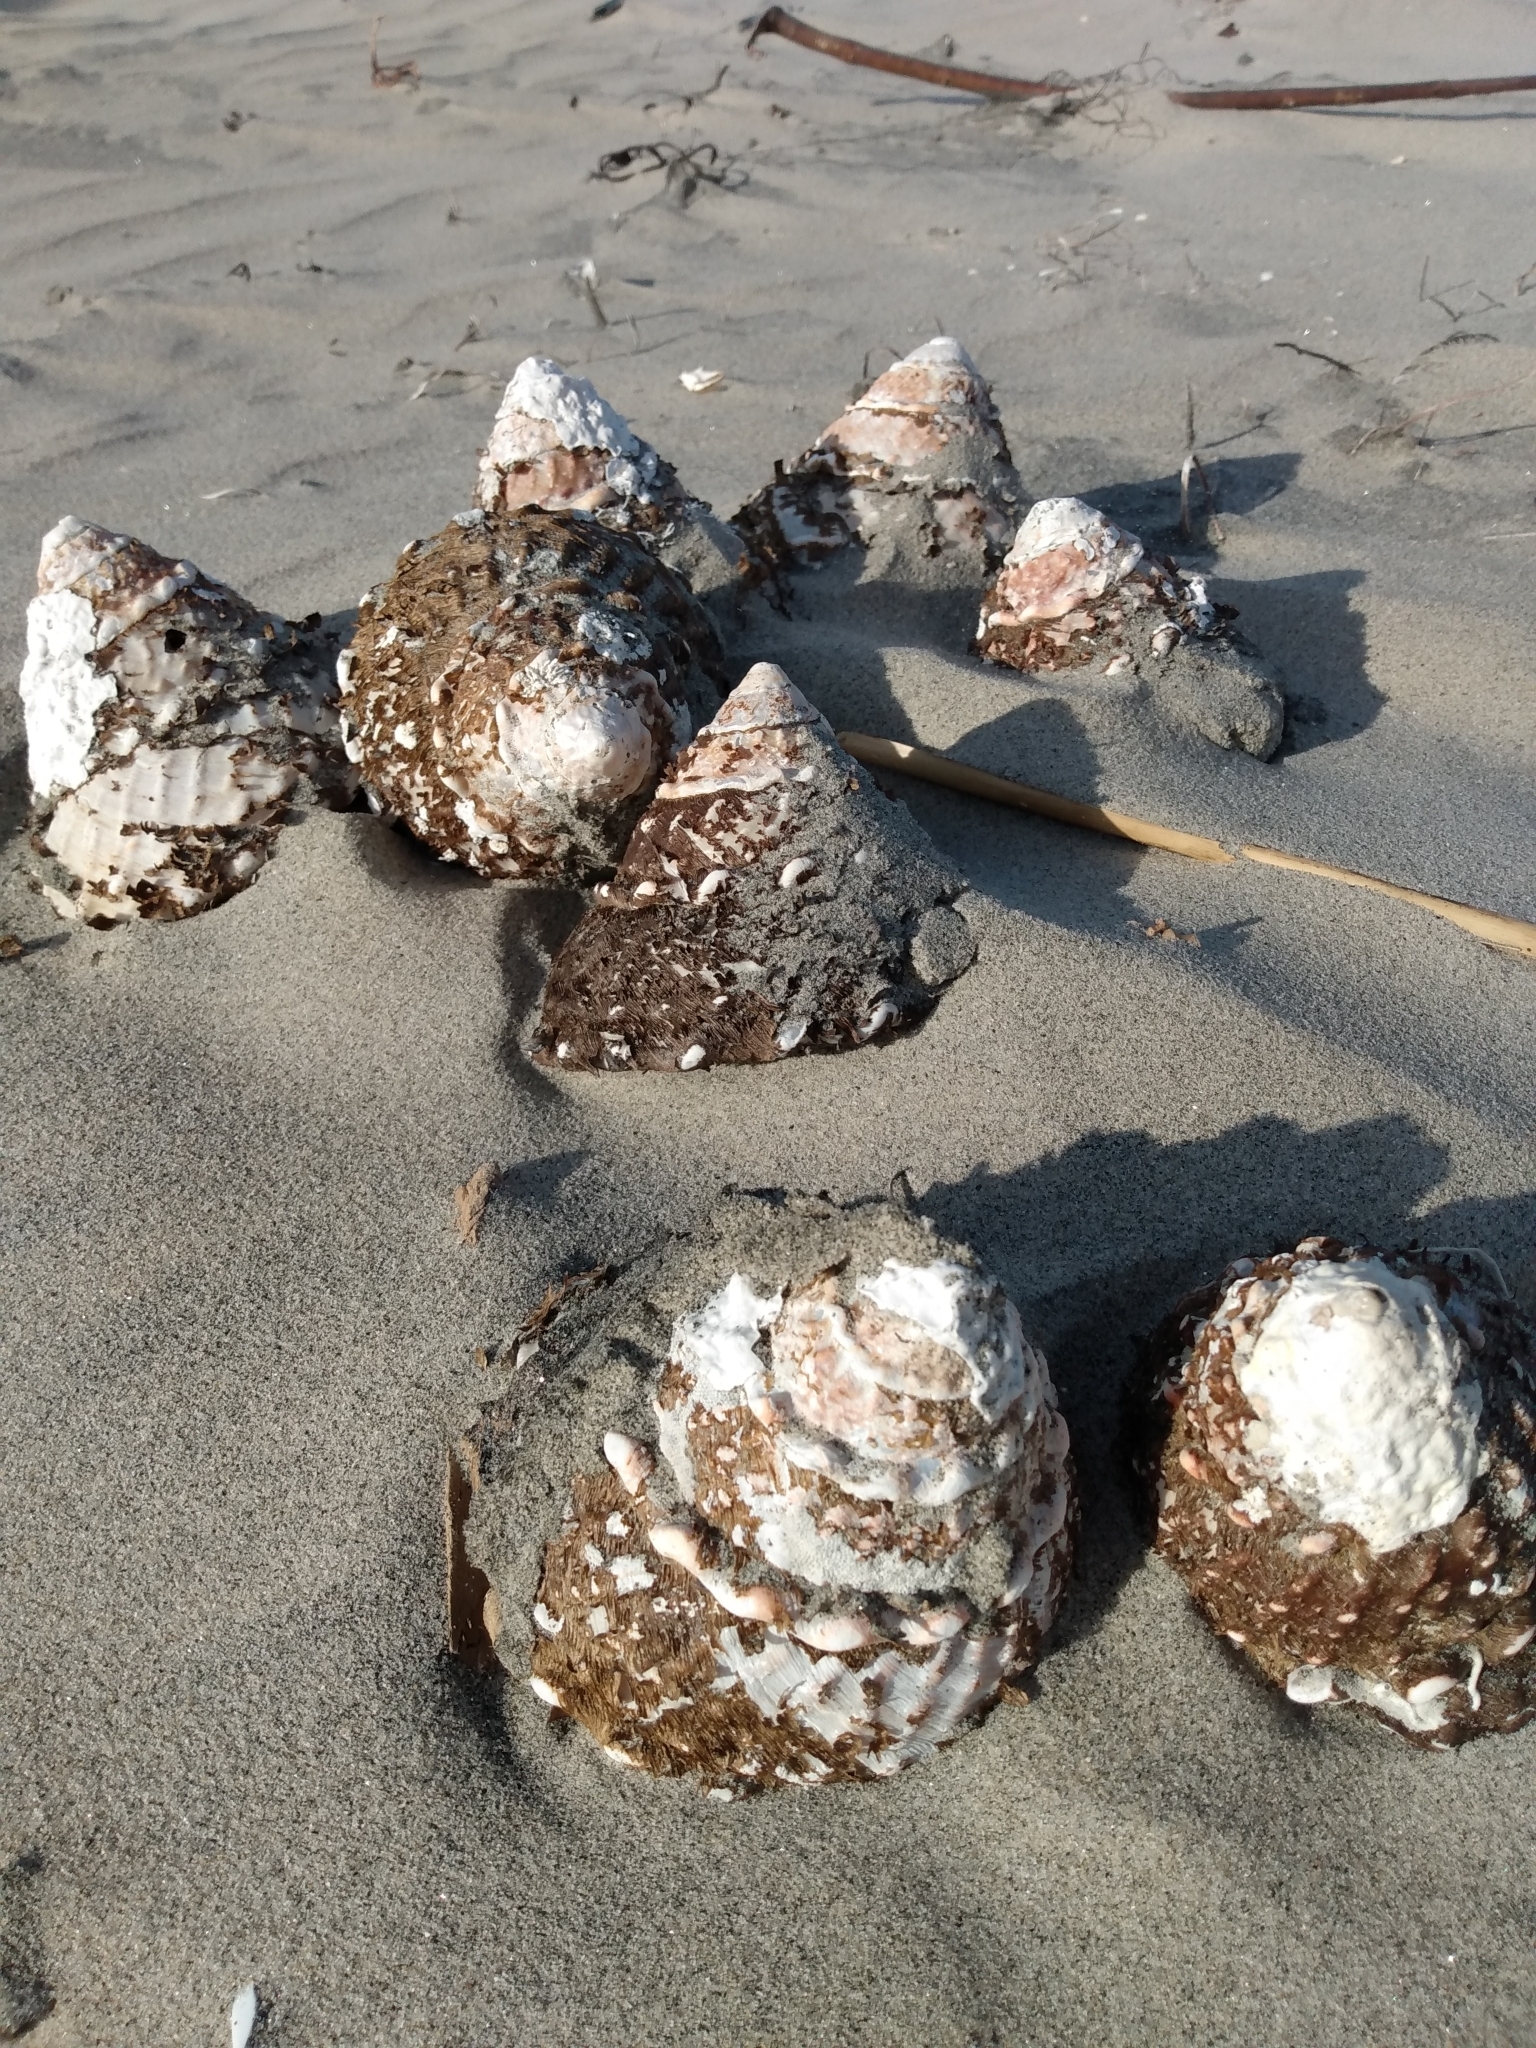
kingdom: Animalia
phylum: Mollusca
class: Gastropoda
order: Trochida
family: Turbinidae
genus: Megastraea
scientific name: Megastraea undosa
